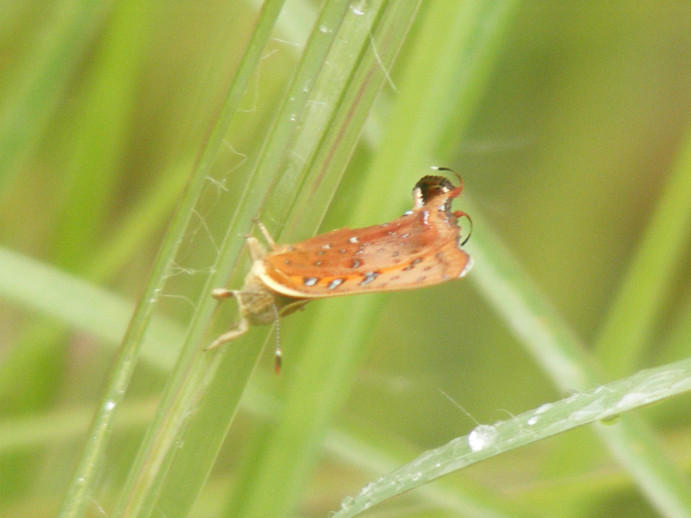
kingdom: Animalia
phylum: Arthropoda
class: Insecta
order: Lepidoptera
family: Lycaenidae
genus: Axiocerses
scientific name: Axiocerses perion
